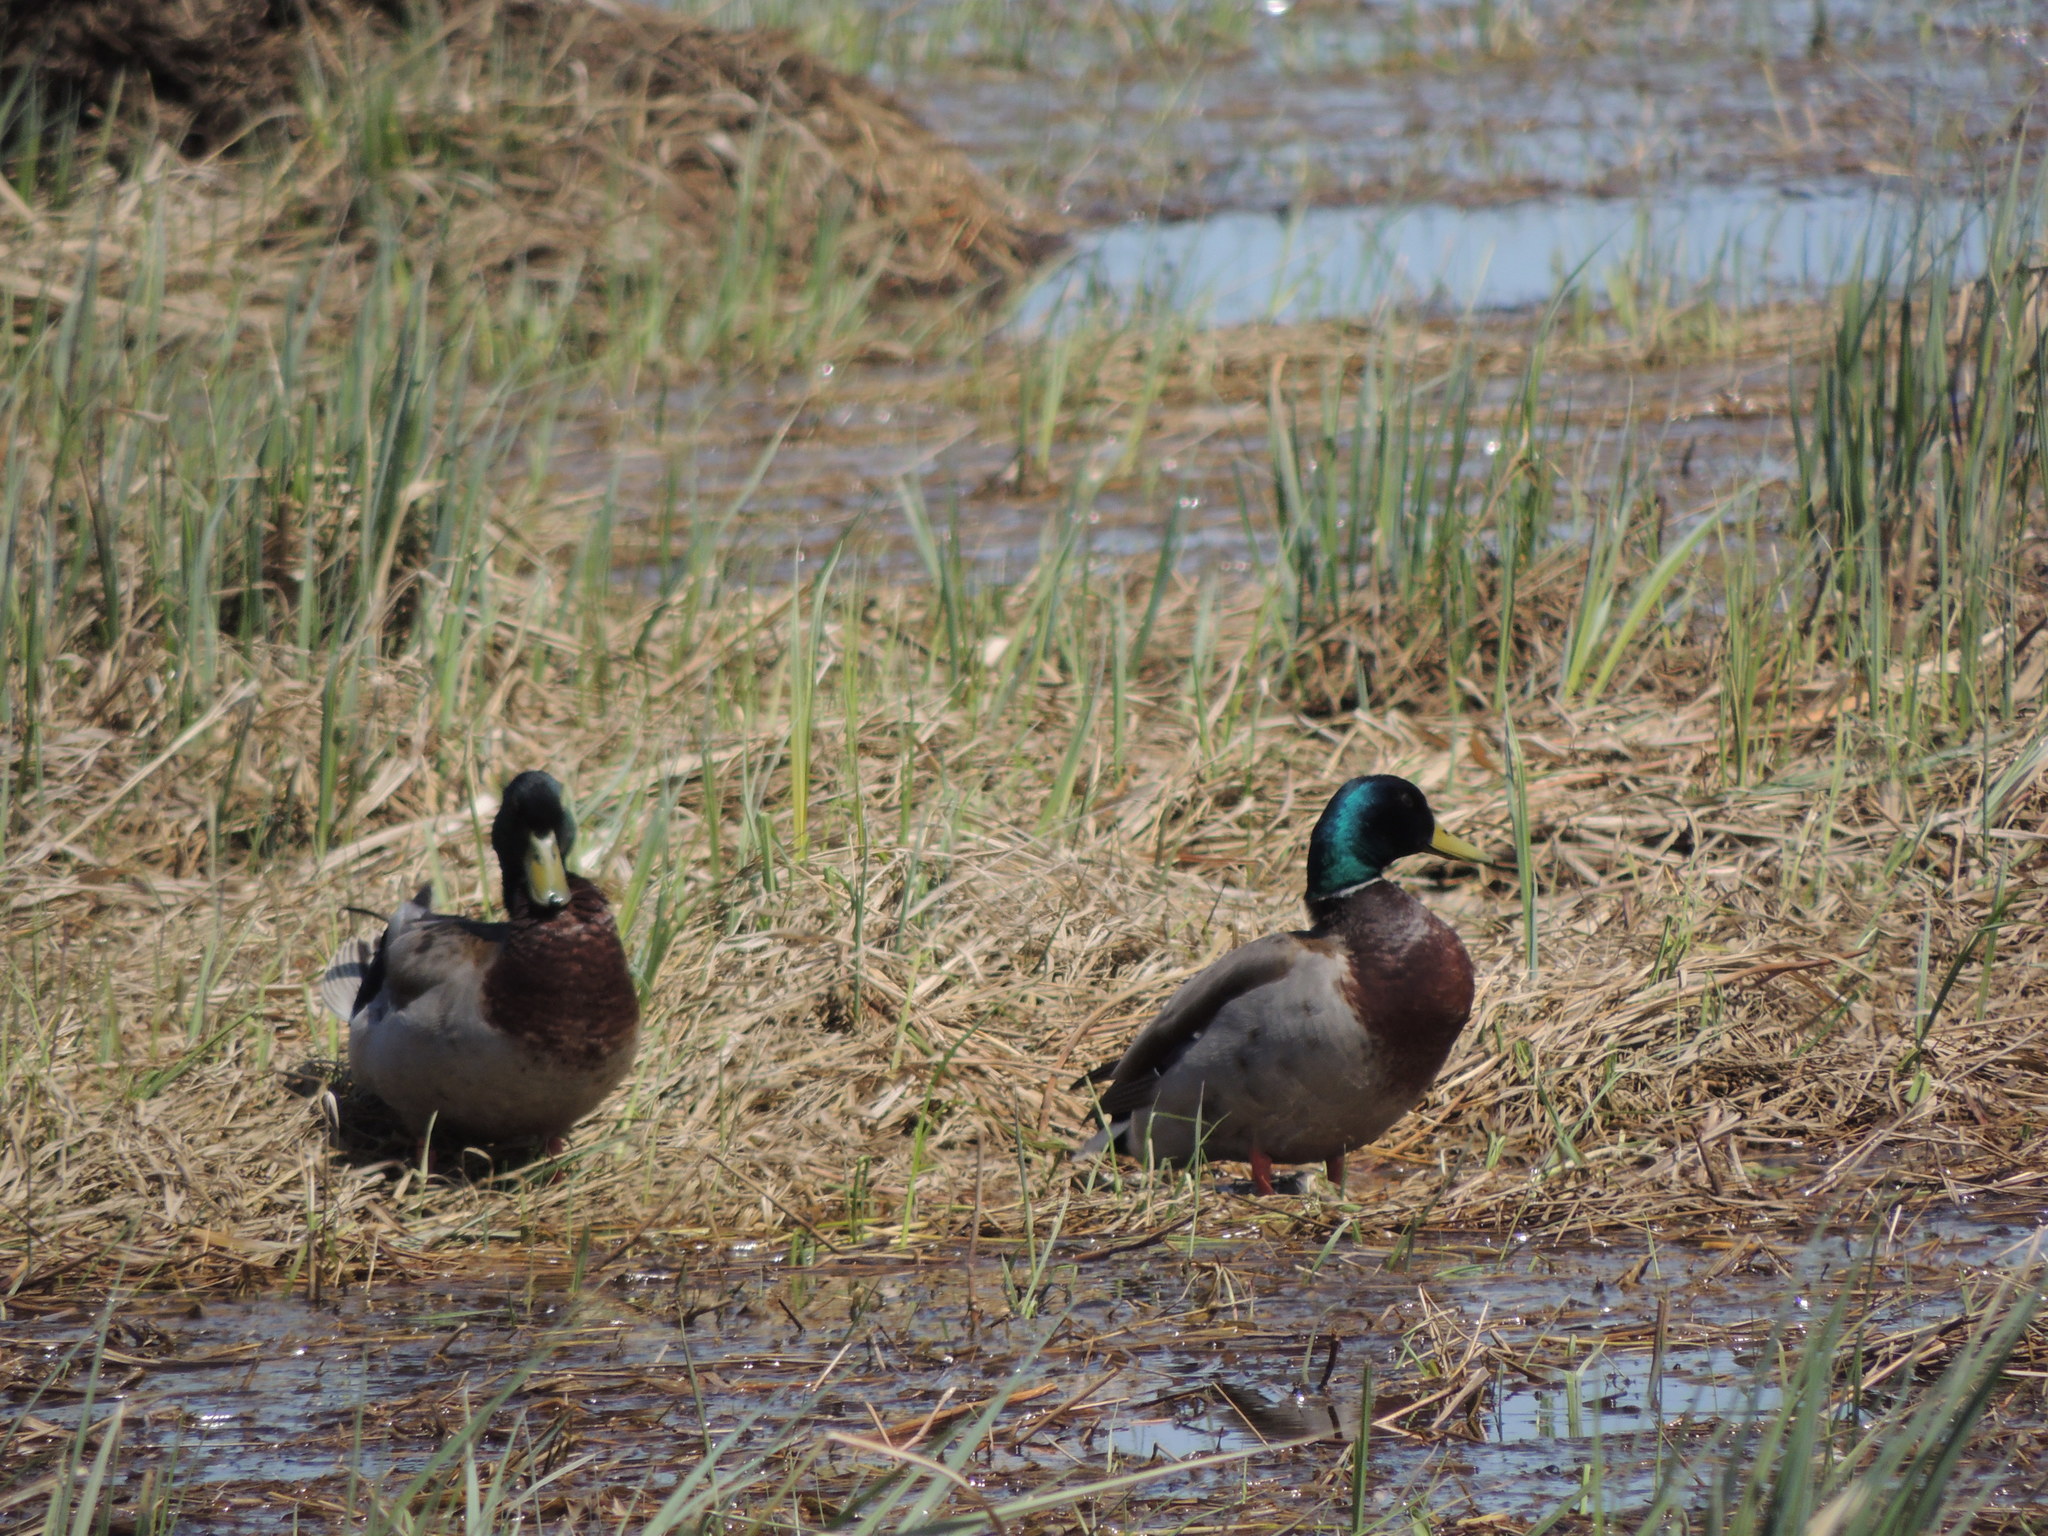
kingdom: Animalia
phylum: Chordata
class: Aves
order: Anseriformes
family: Anatidae
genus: Anas
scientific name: Anas platyrhynchos
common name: Mallard
